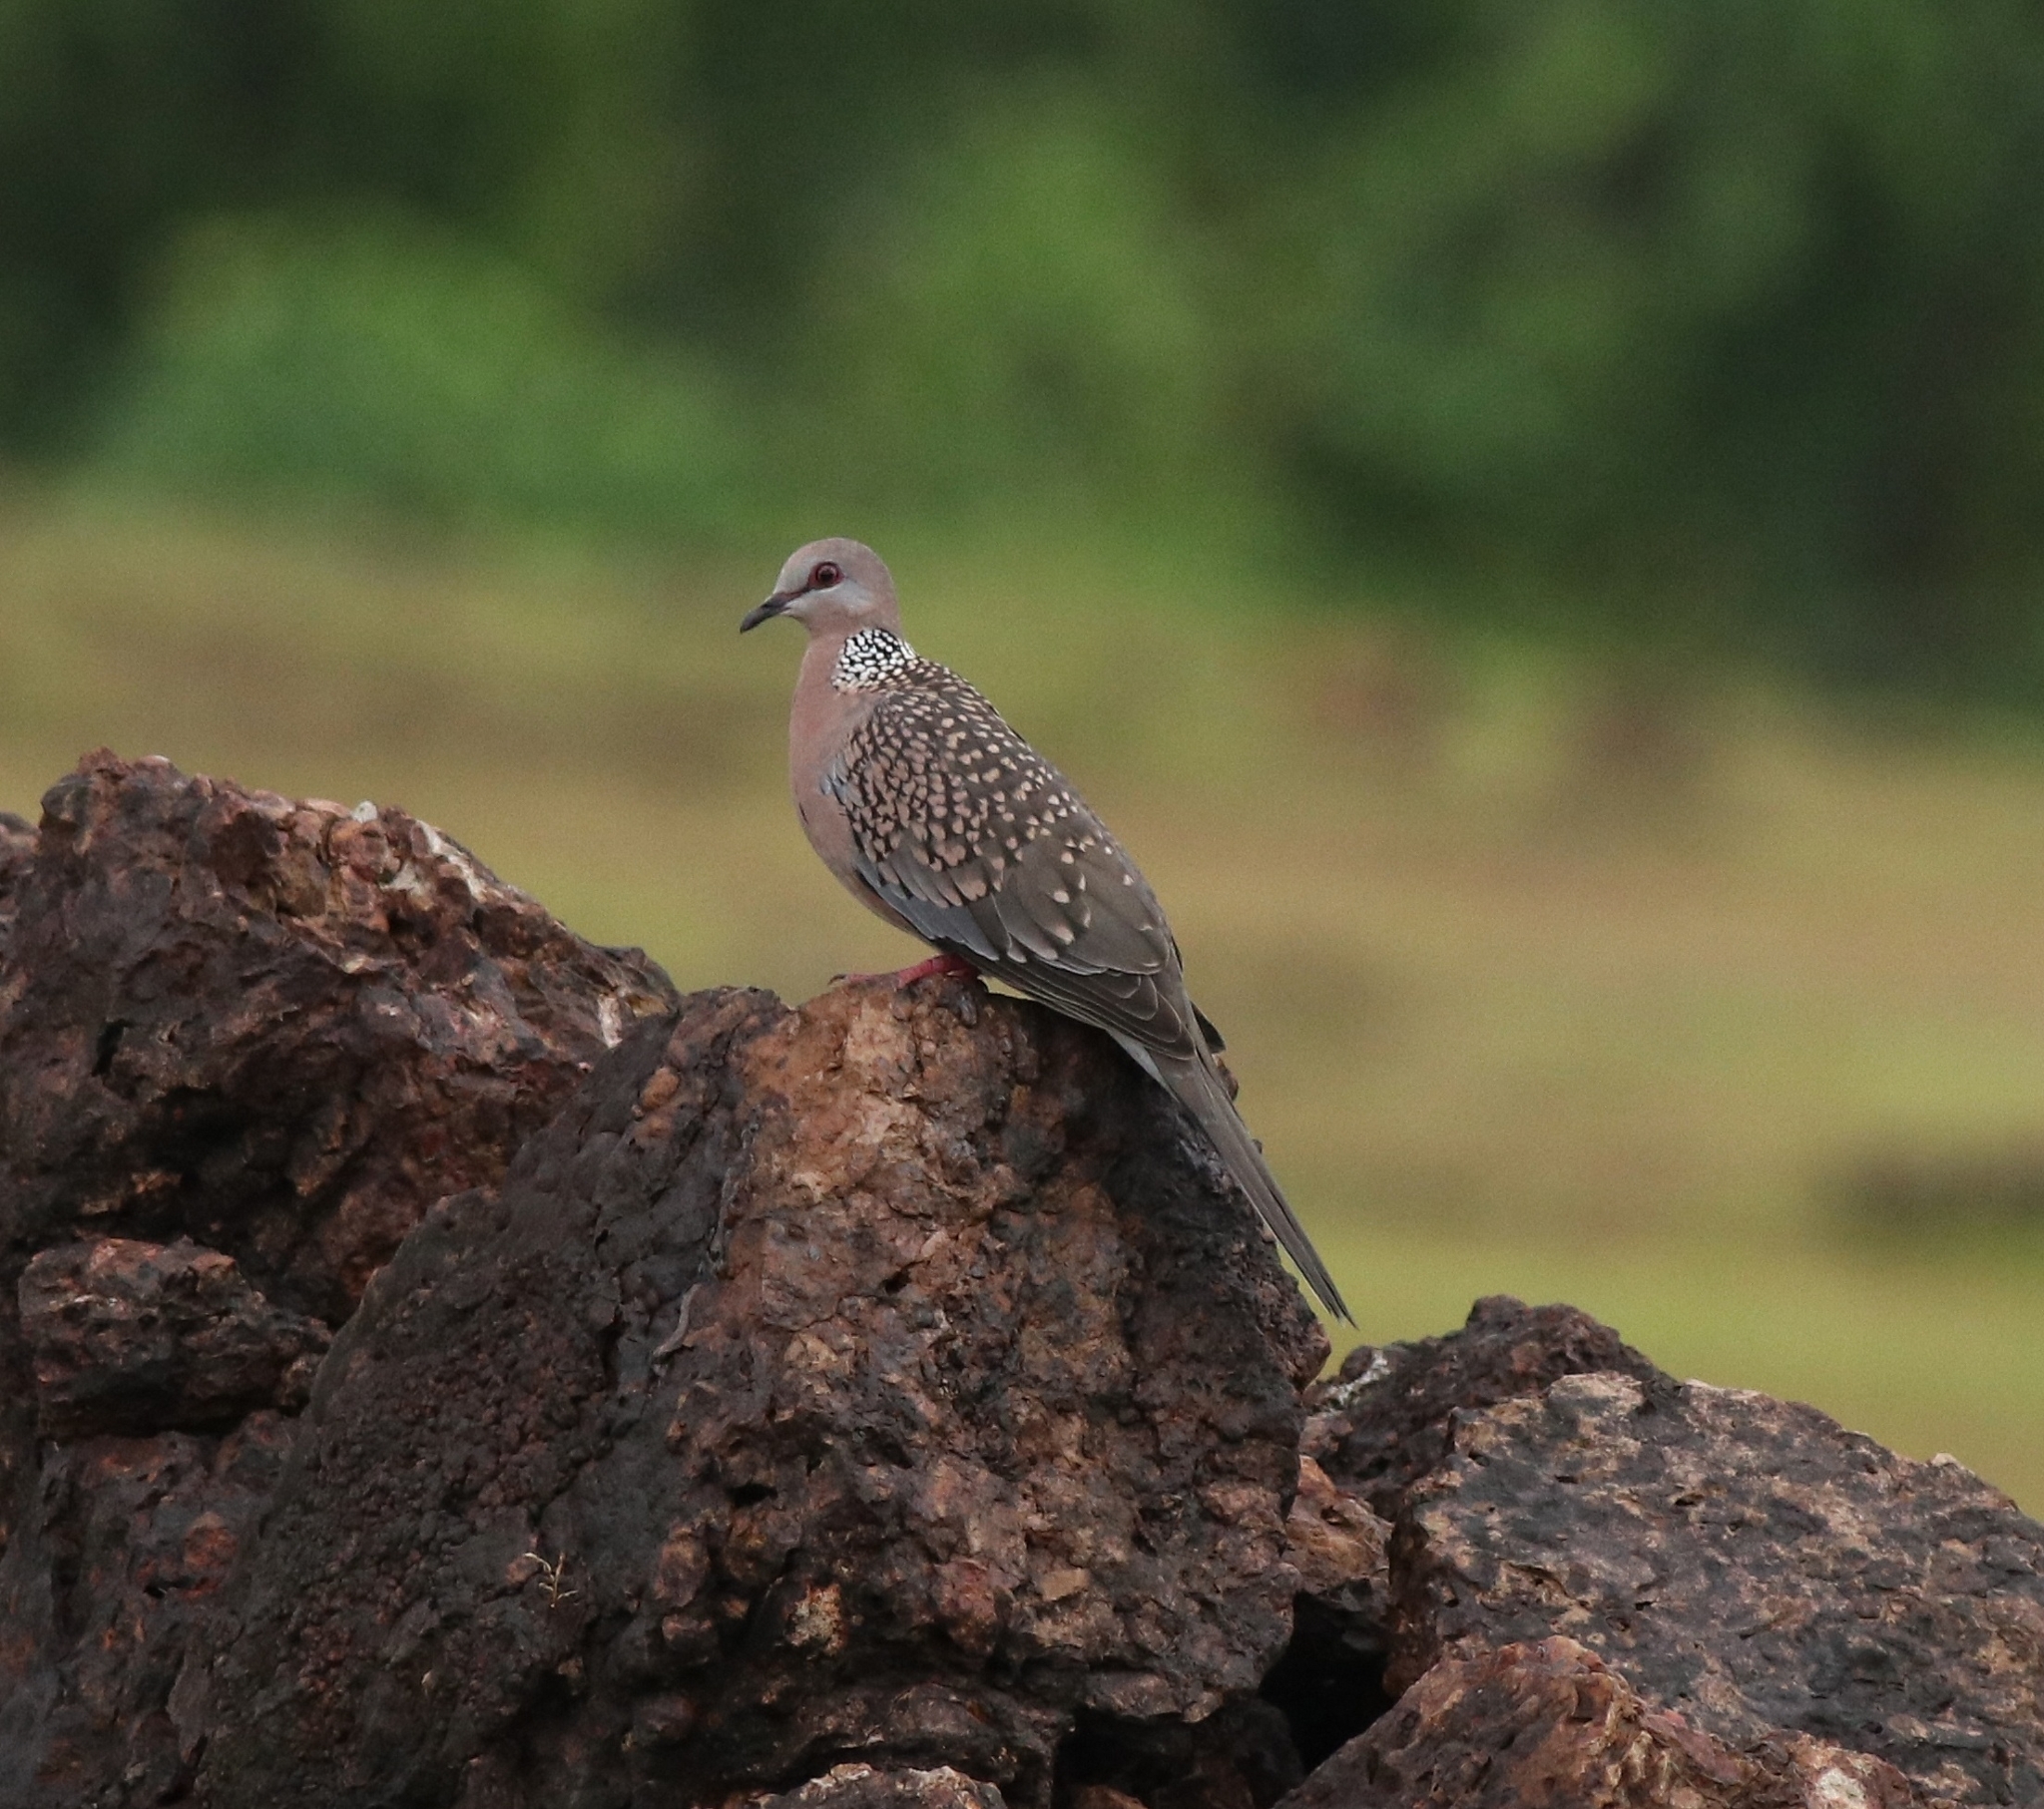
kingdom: Animalia
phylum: Chordata
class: Aves
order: Columbiformes
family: Columbidae
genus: Spilopelia
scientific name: Spilopelia chinensis
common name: Spotted dove
